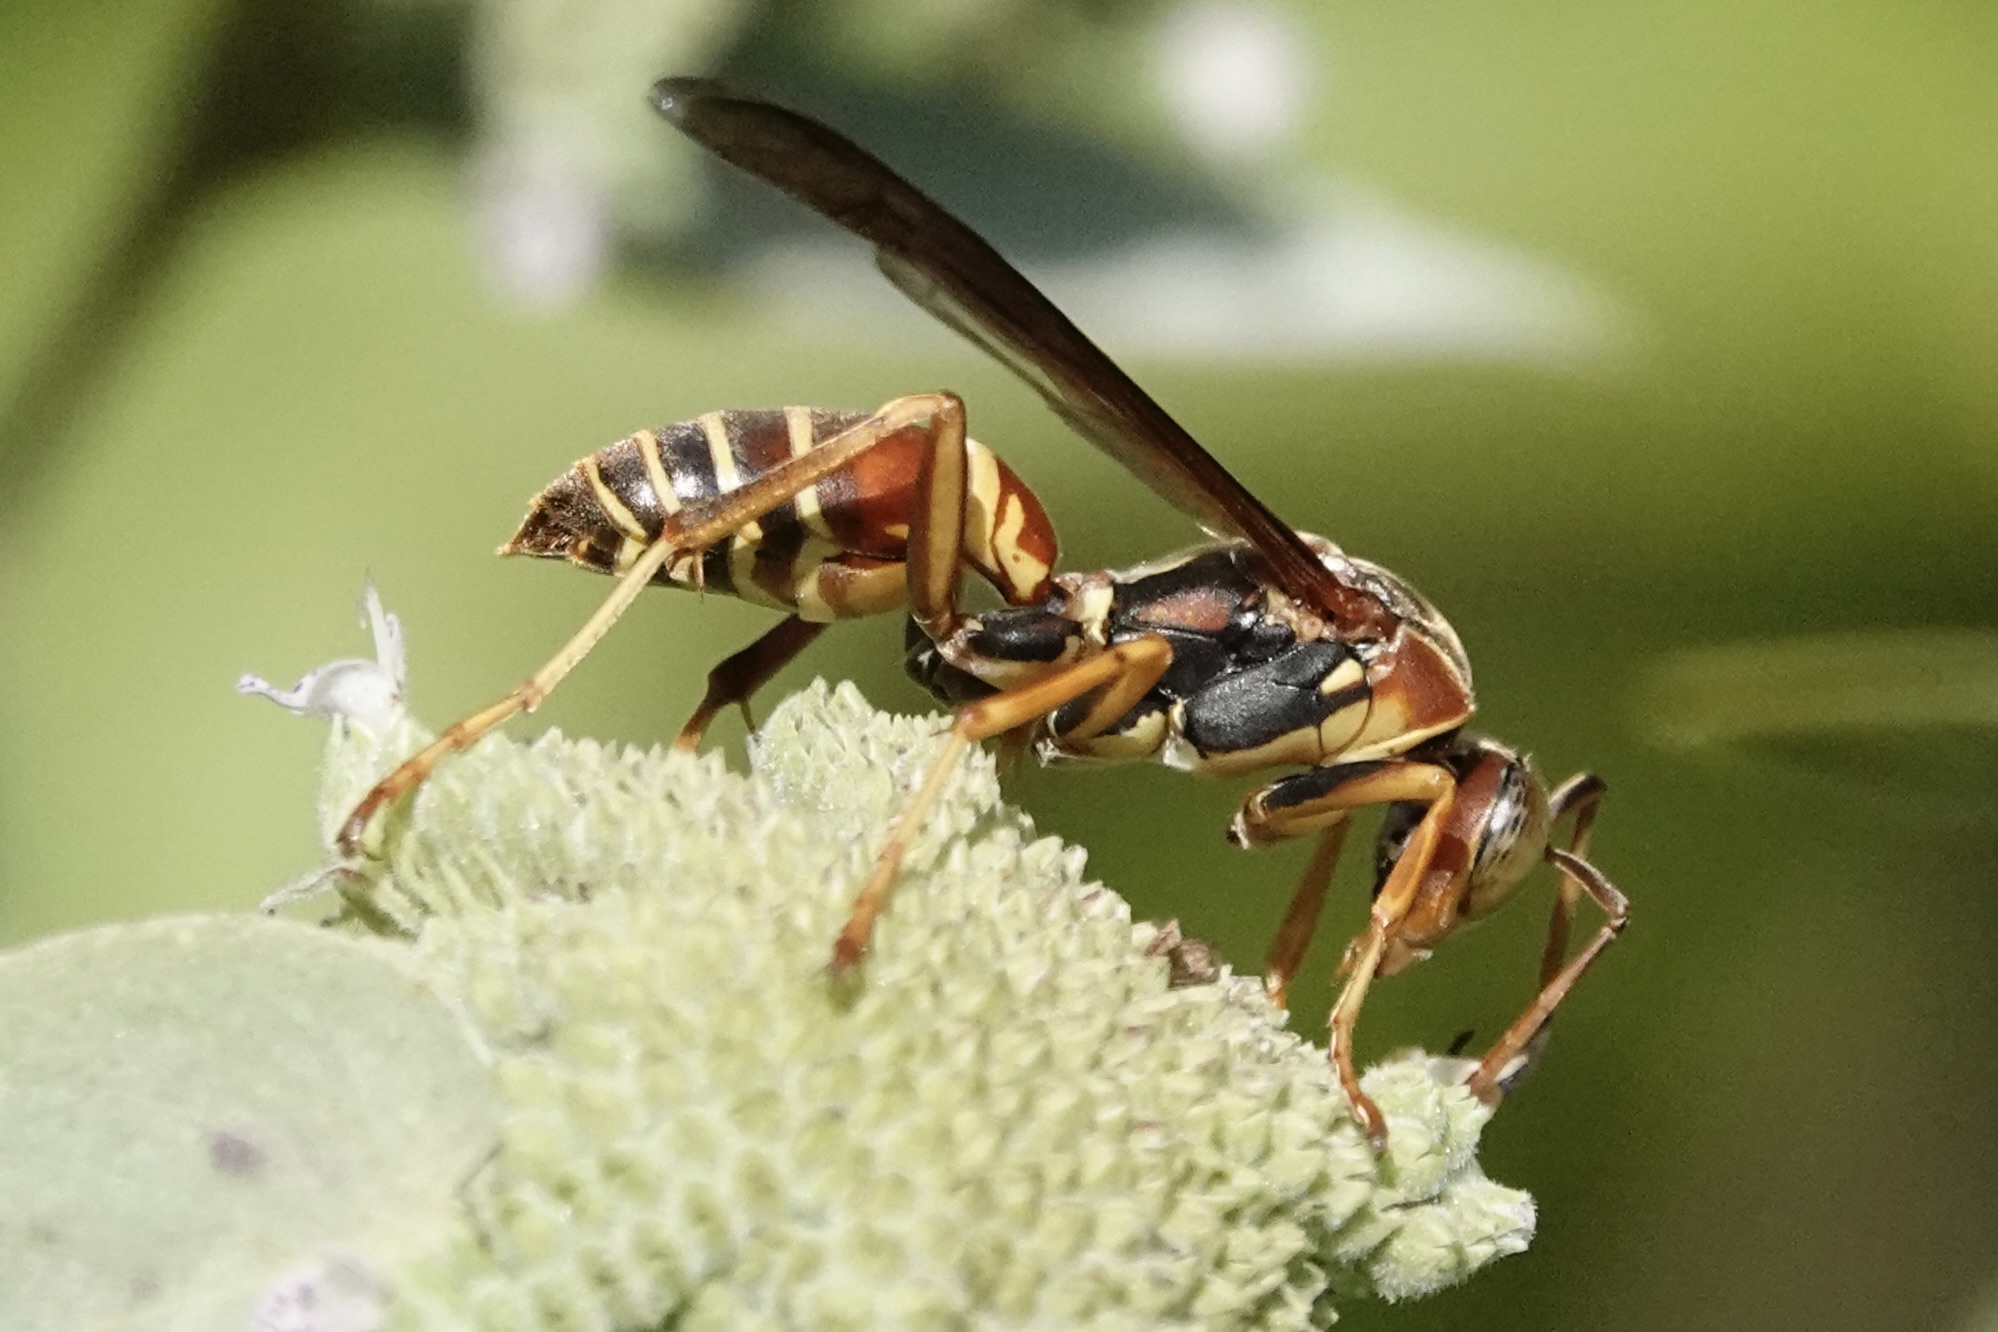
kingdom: Animalia
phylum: Arthropoda
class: Insecta
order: Hymenoptera
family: Eumenidae
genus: Polistes
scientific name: Polistes fuscatus
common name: Dark paper wasp
